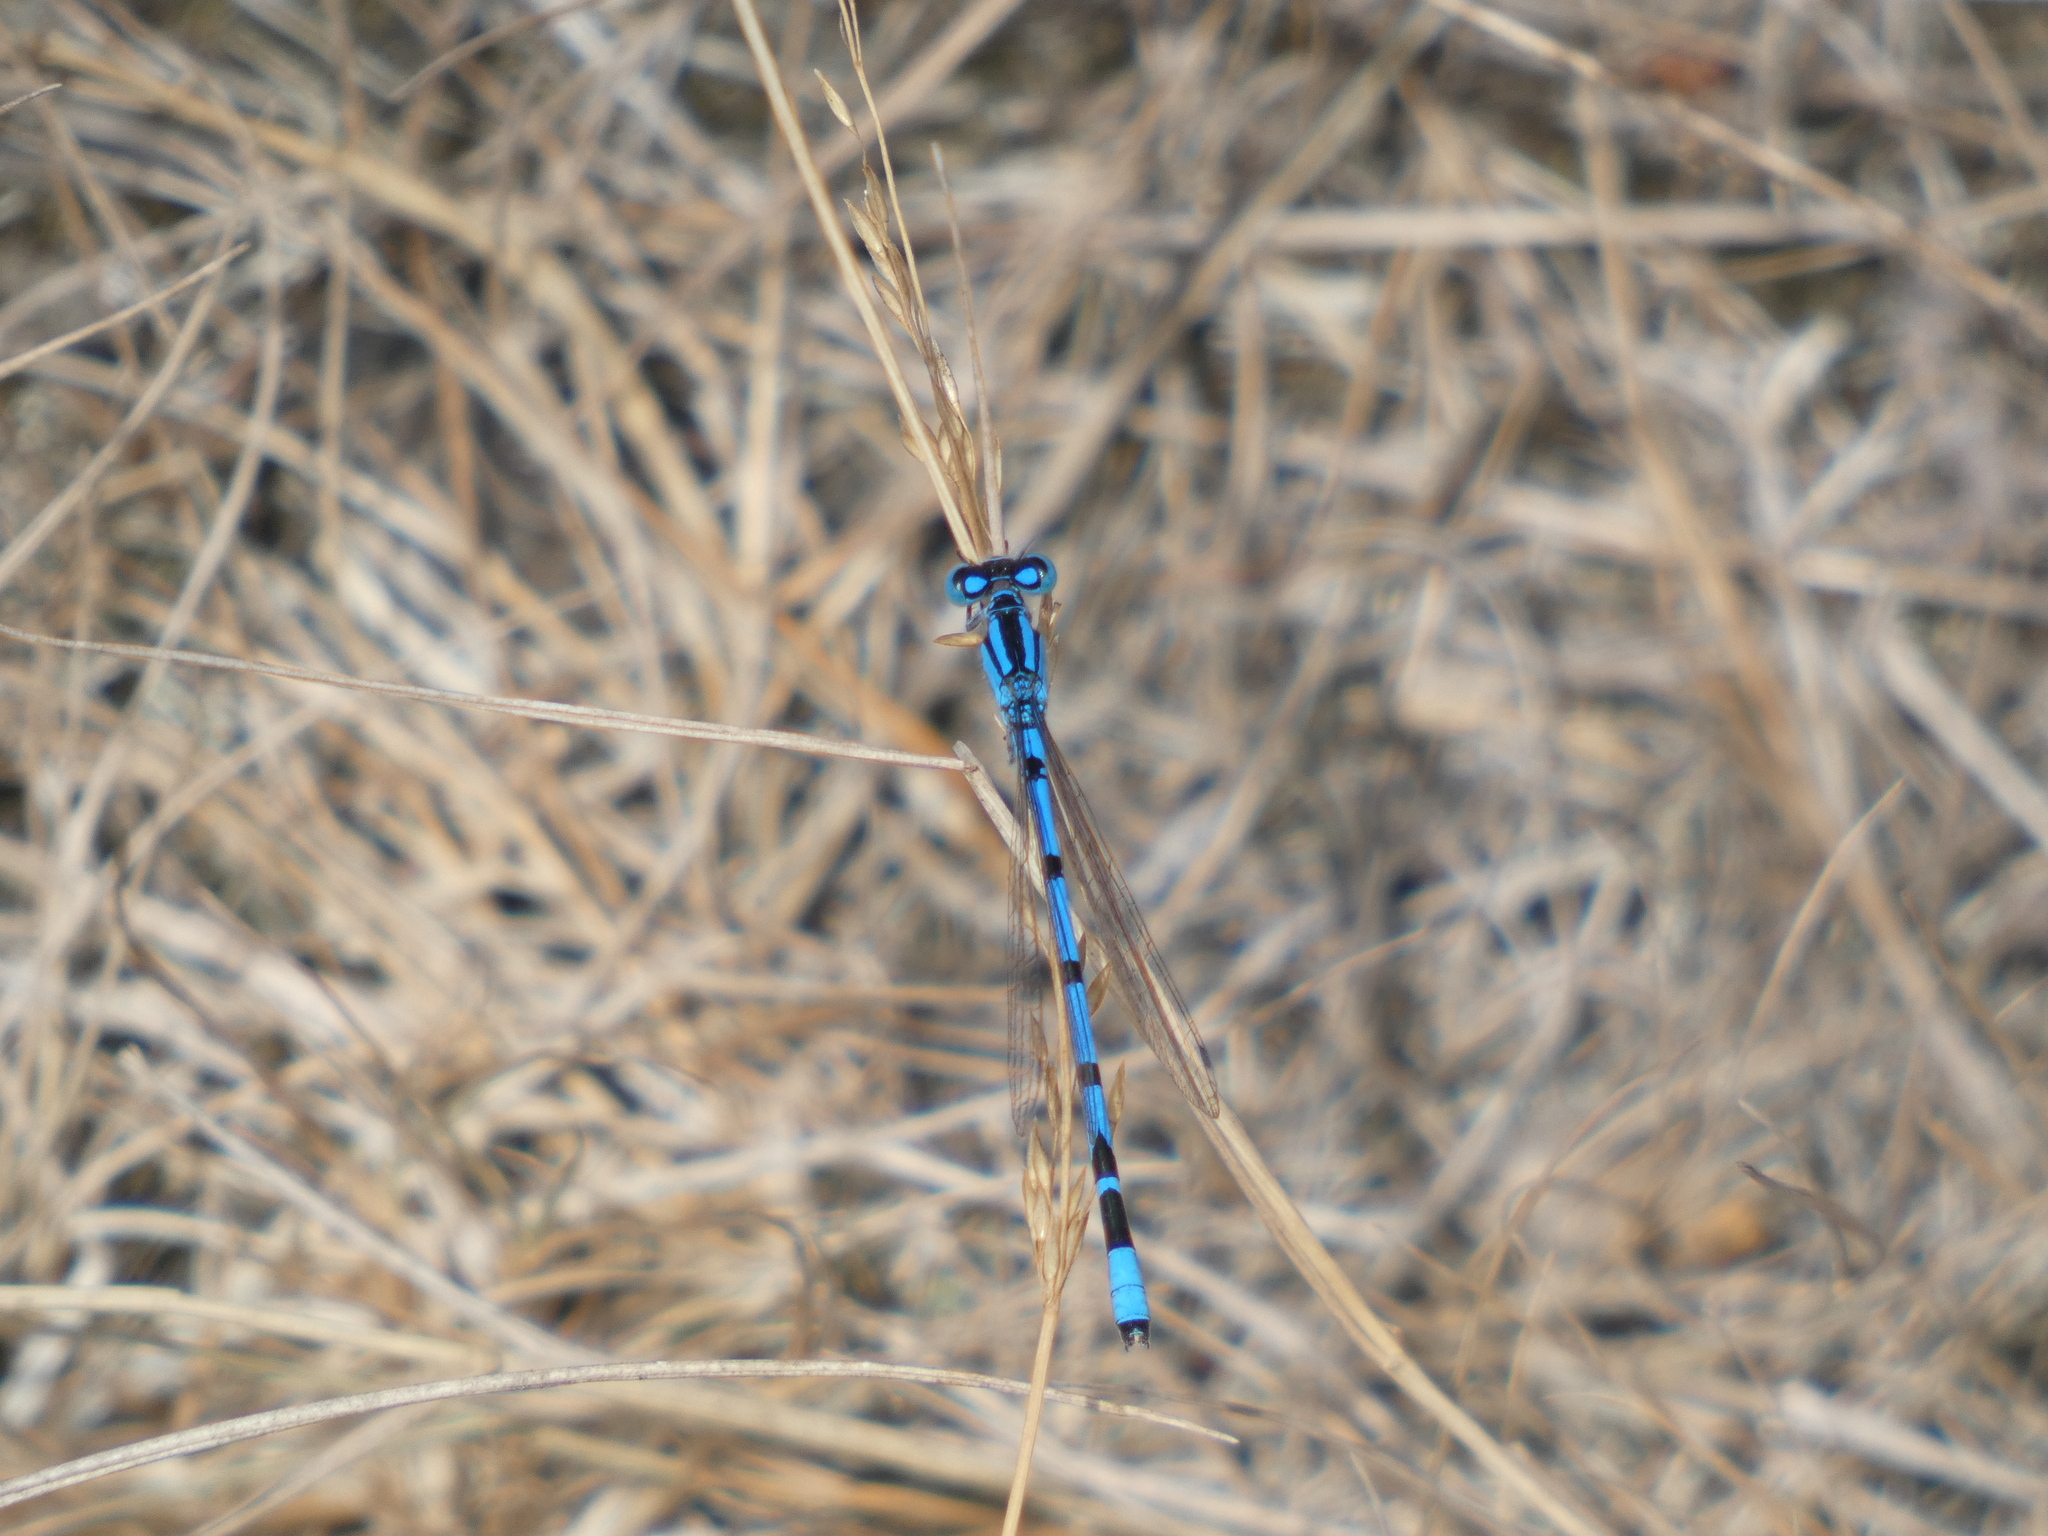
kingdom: Animalia
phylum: Arthropoda
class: Insecta
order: Odonata
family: Coenagrionidae
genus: Enallagma
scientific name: Enallagma cyathigerum
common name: Common blue damselfly
